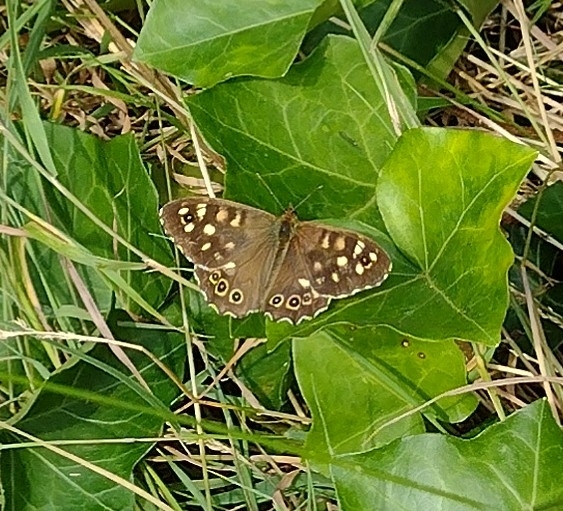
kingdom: Animalia
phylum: Arthropoda
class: Insecta
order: Lepidoptera
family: Nymphalidae
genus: Pararge
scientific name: Pararge aegeria
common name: Speckled wood
